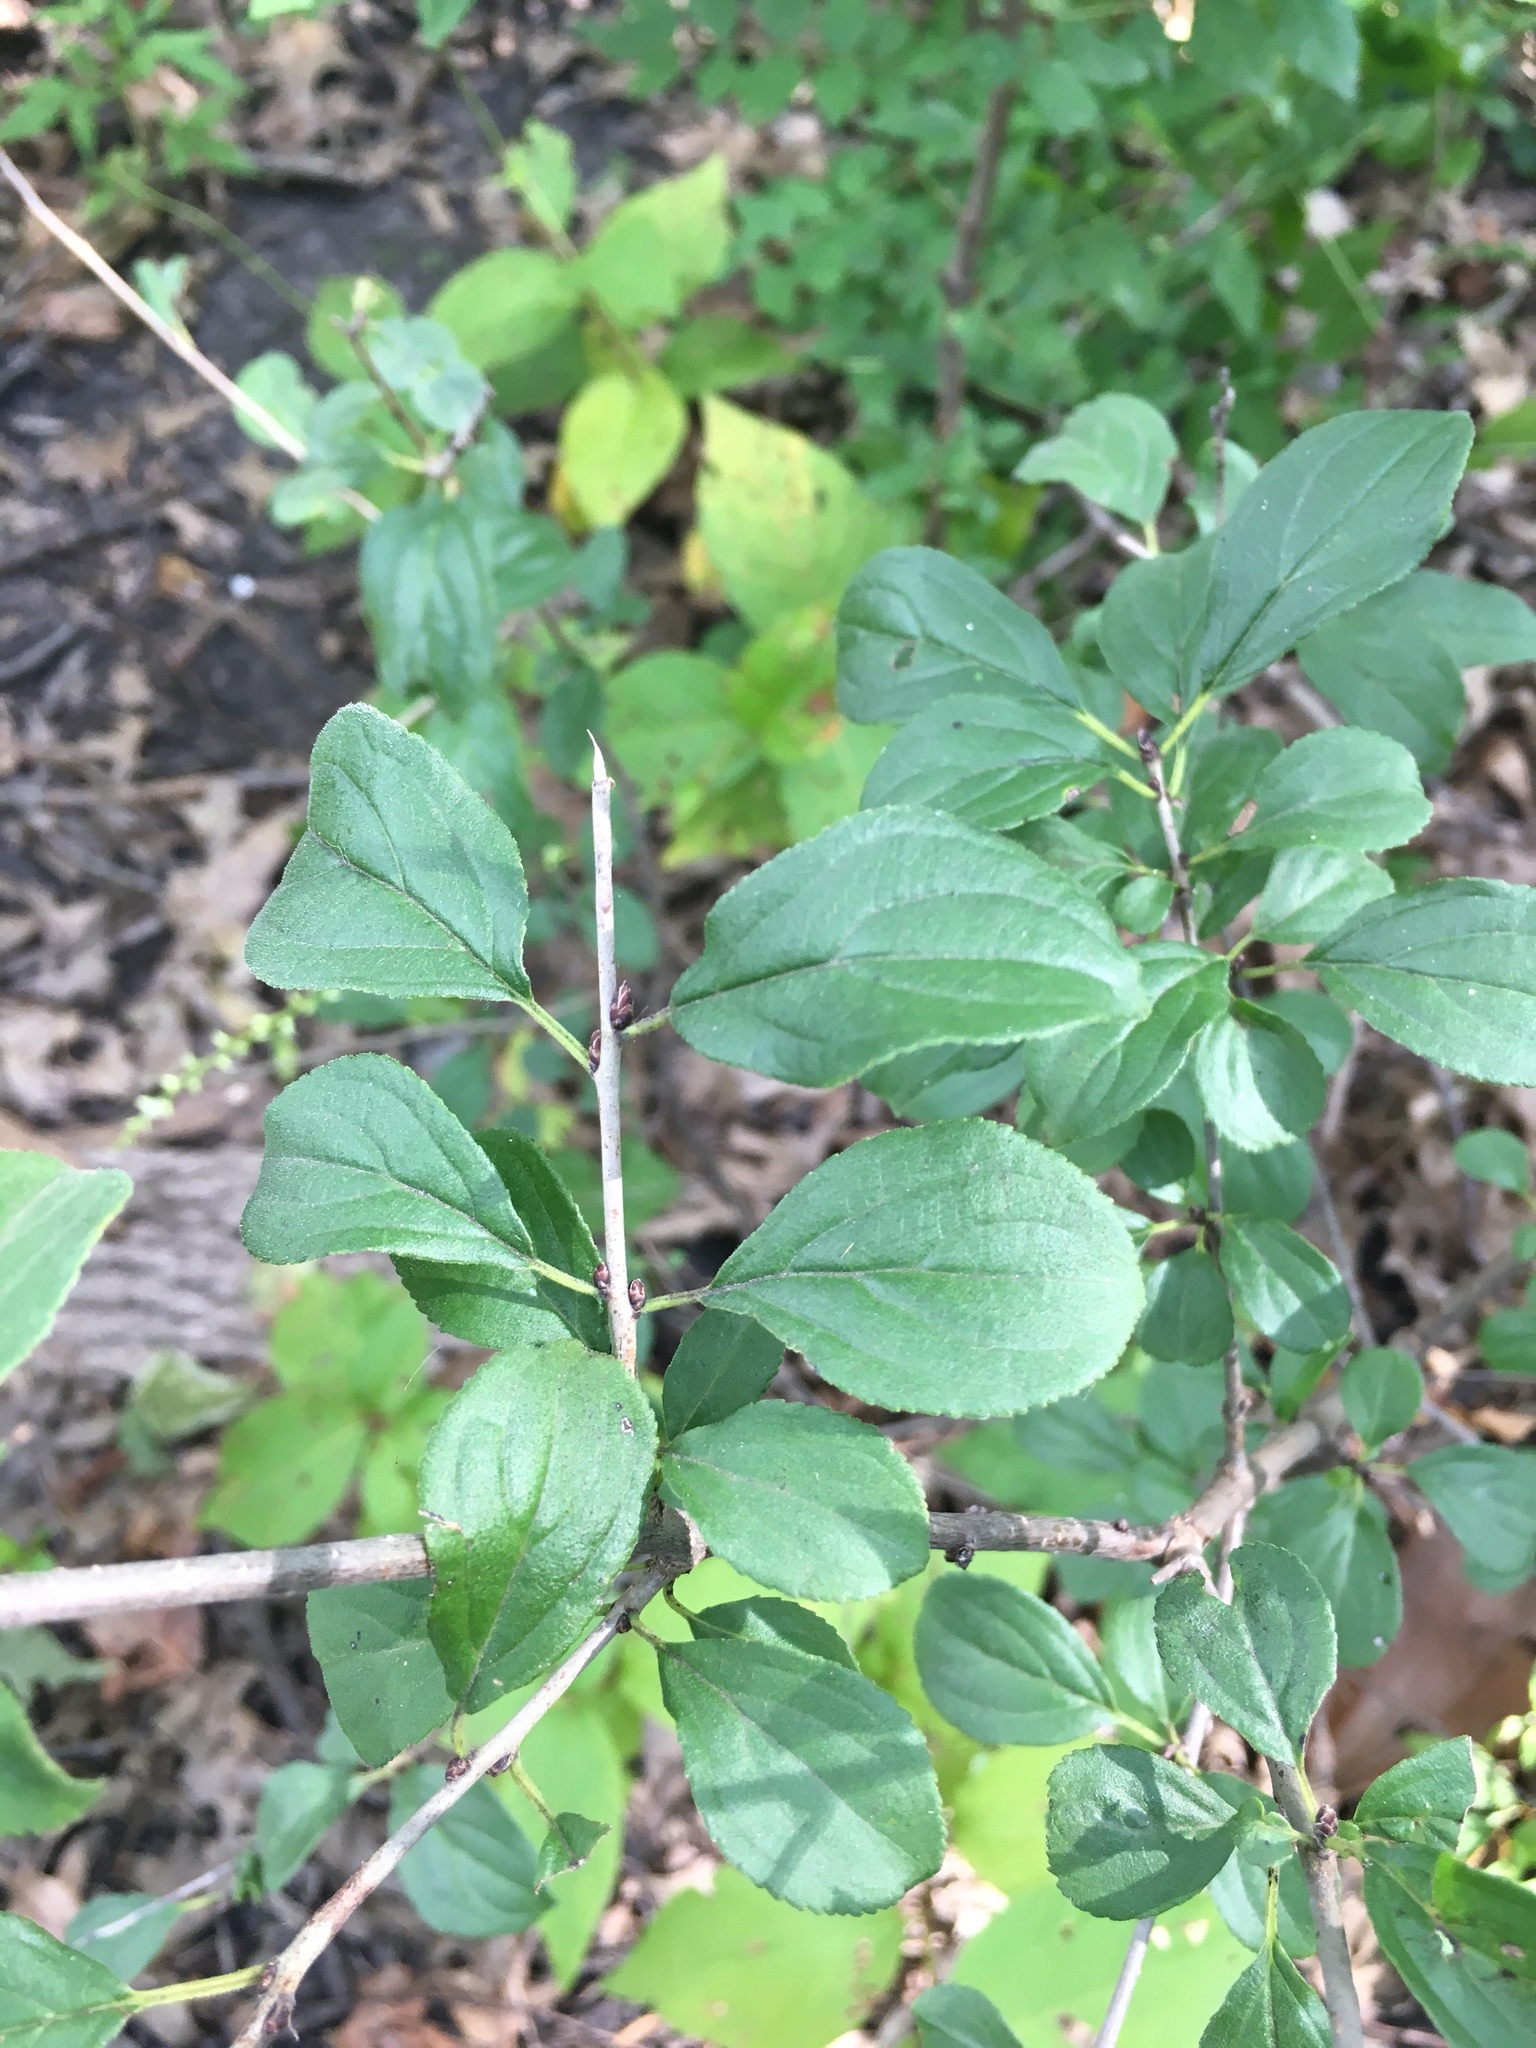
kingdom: Plantae
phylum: Tracheophyta
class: Magnoliopsida
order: Rosales
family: Rhamnaceae
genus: Rhamnus
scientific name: Rhamnus cathartica
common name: Common buckthorn
